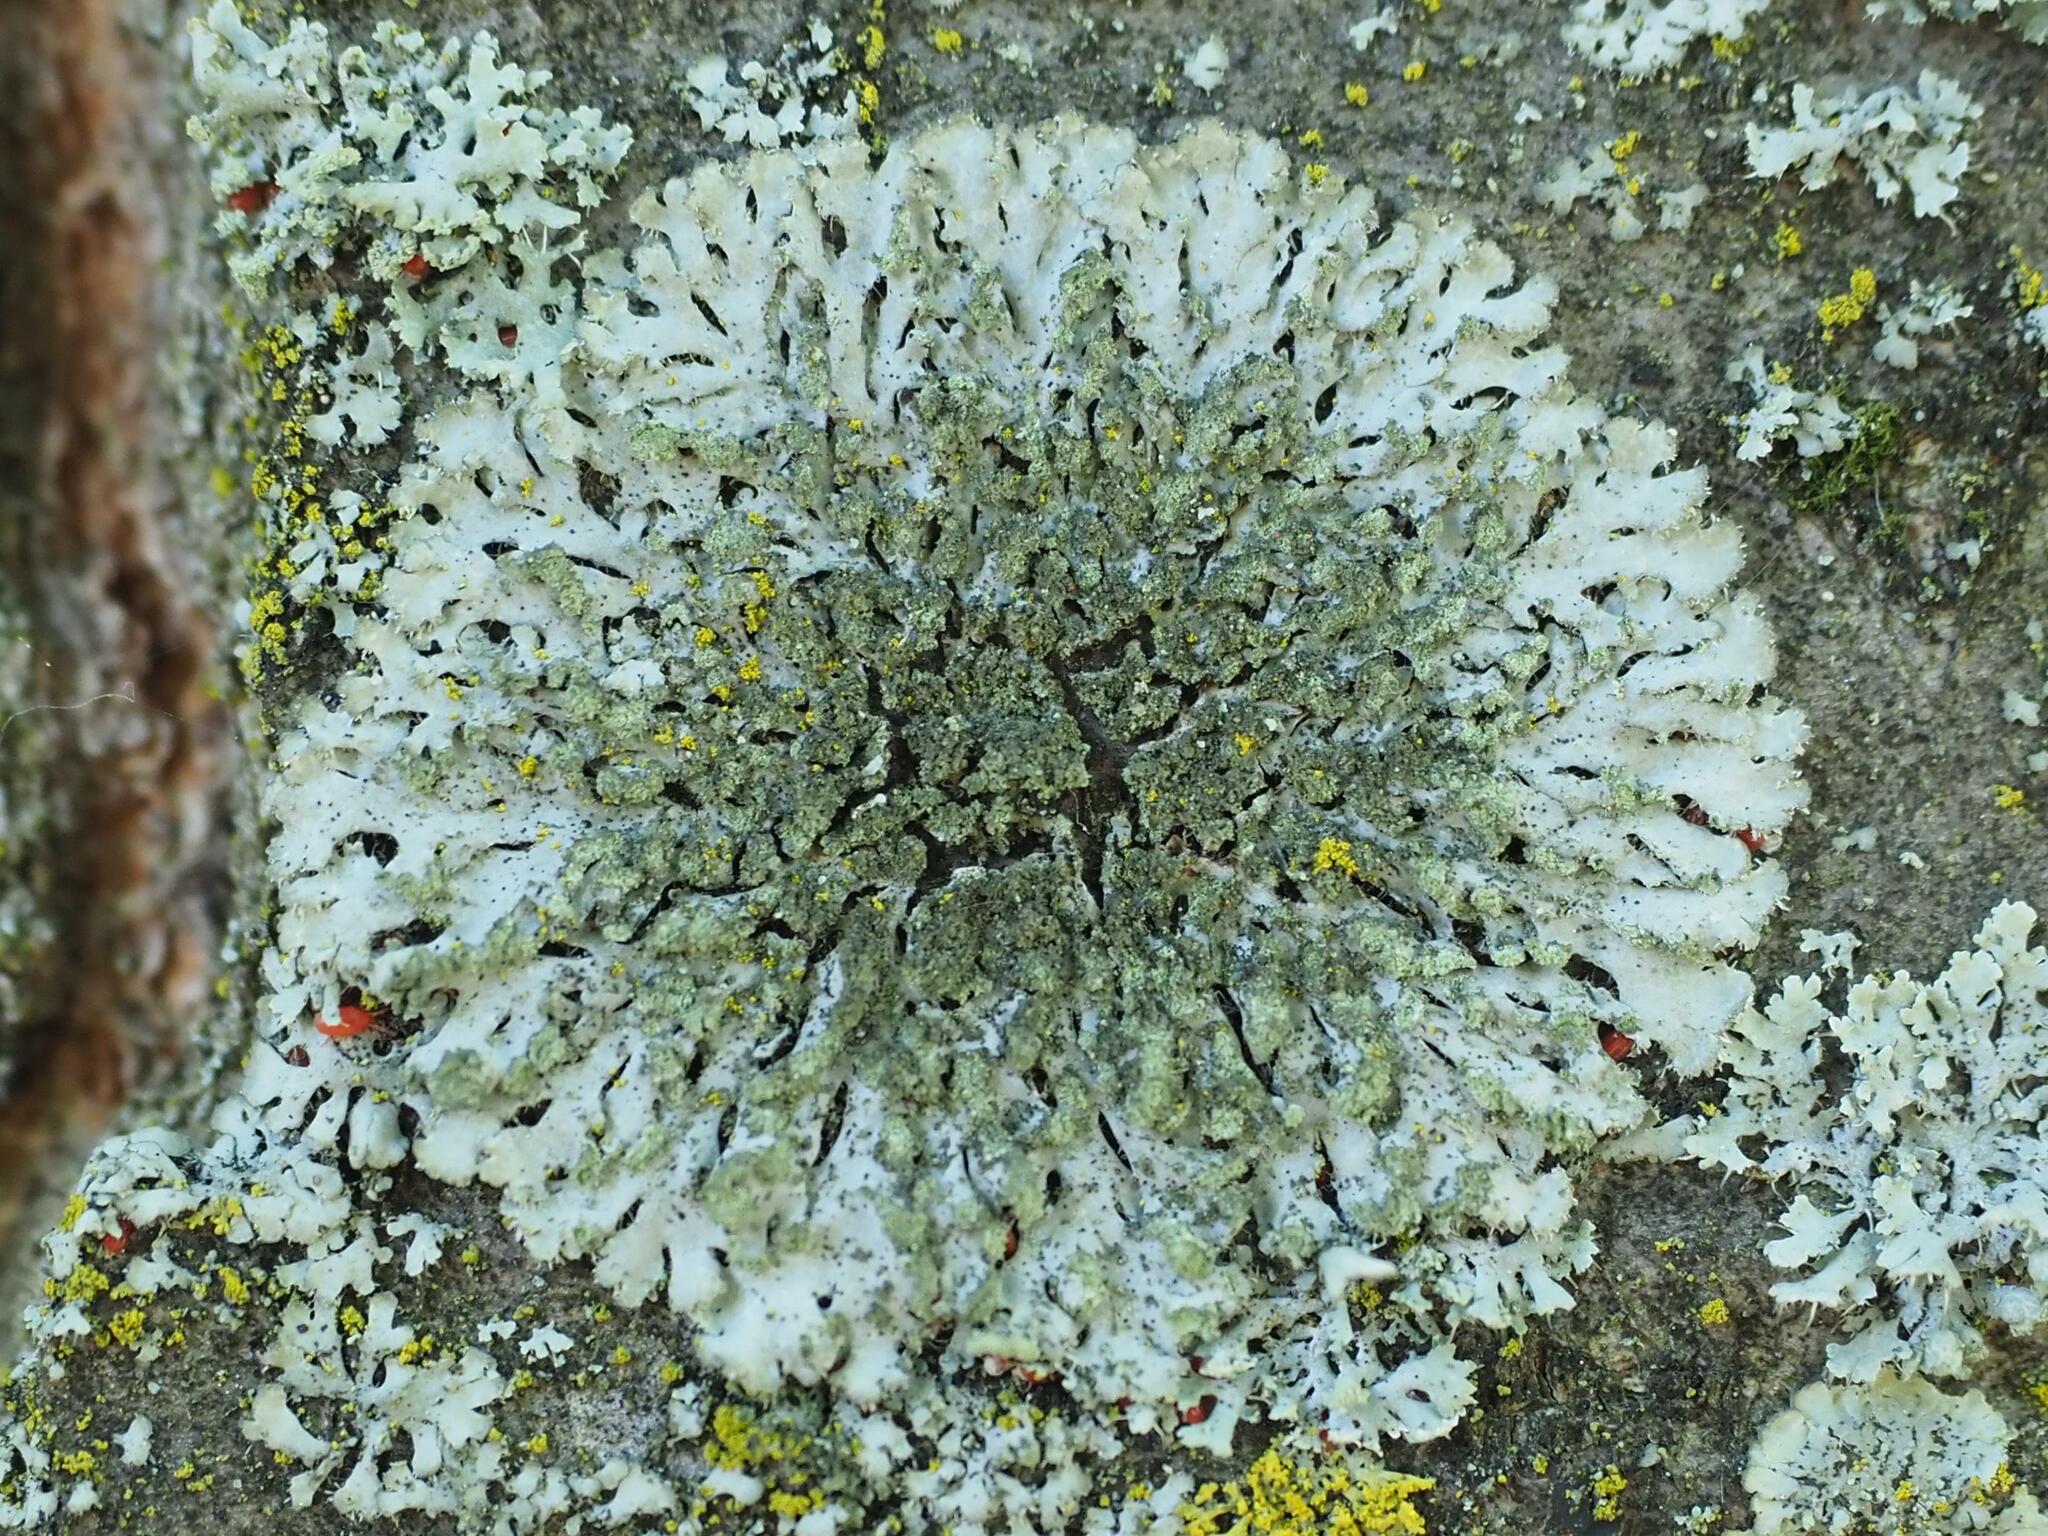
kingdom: Fungi
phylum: Ascomycota
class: Lecanoromycetes
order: Caliciales
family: Physciaceae
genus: Phaeophyscia
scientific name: Phaeophyscia orbicularis
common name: Mealy shadow lichen
